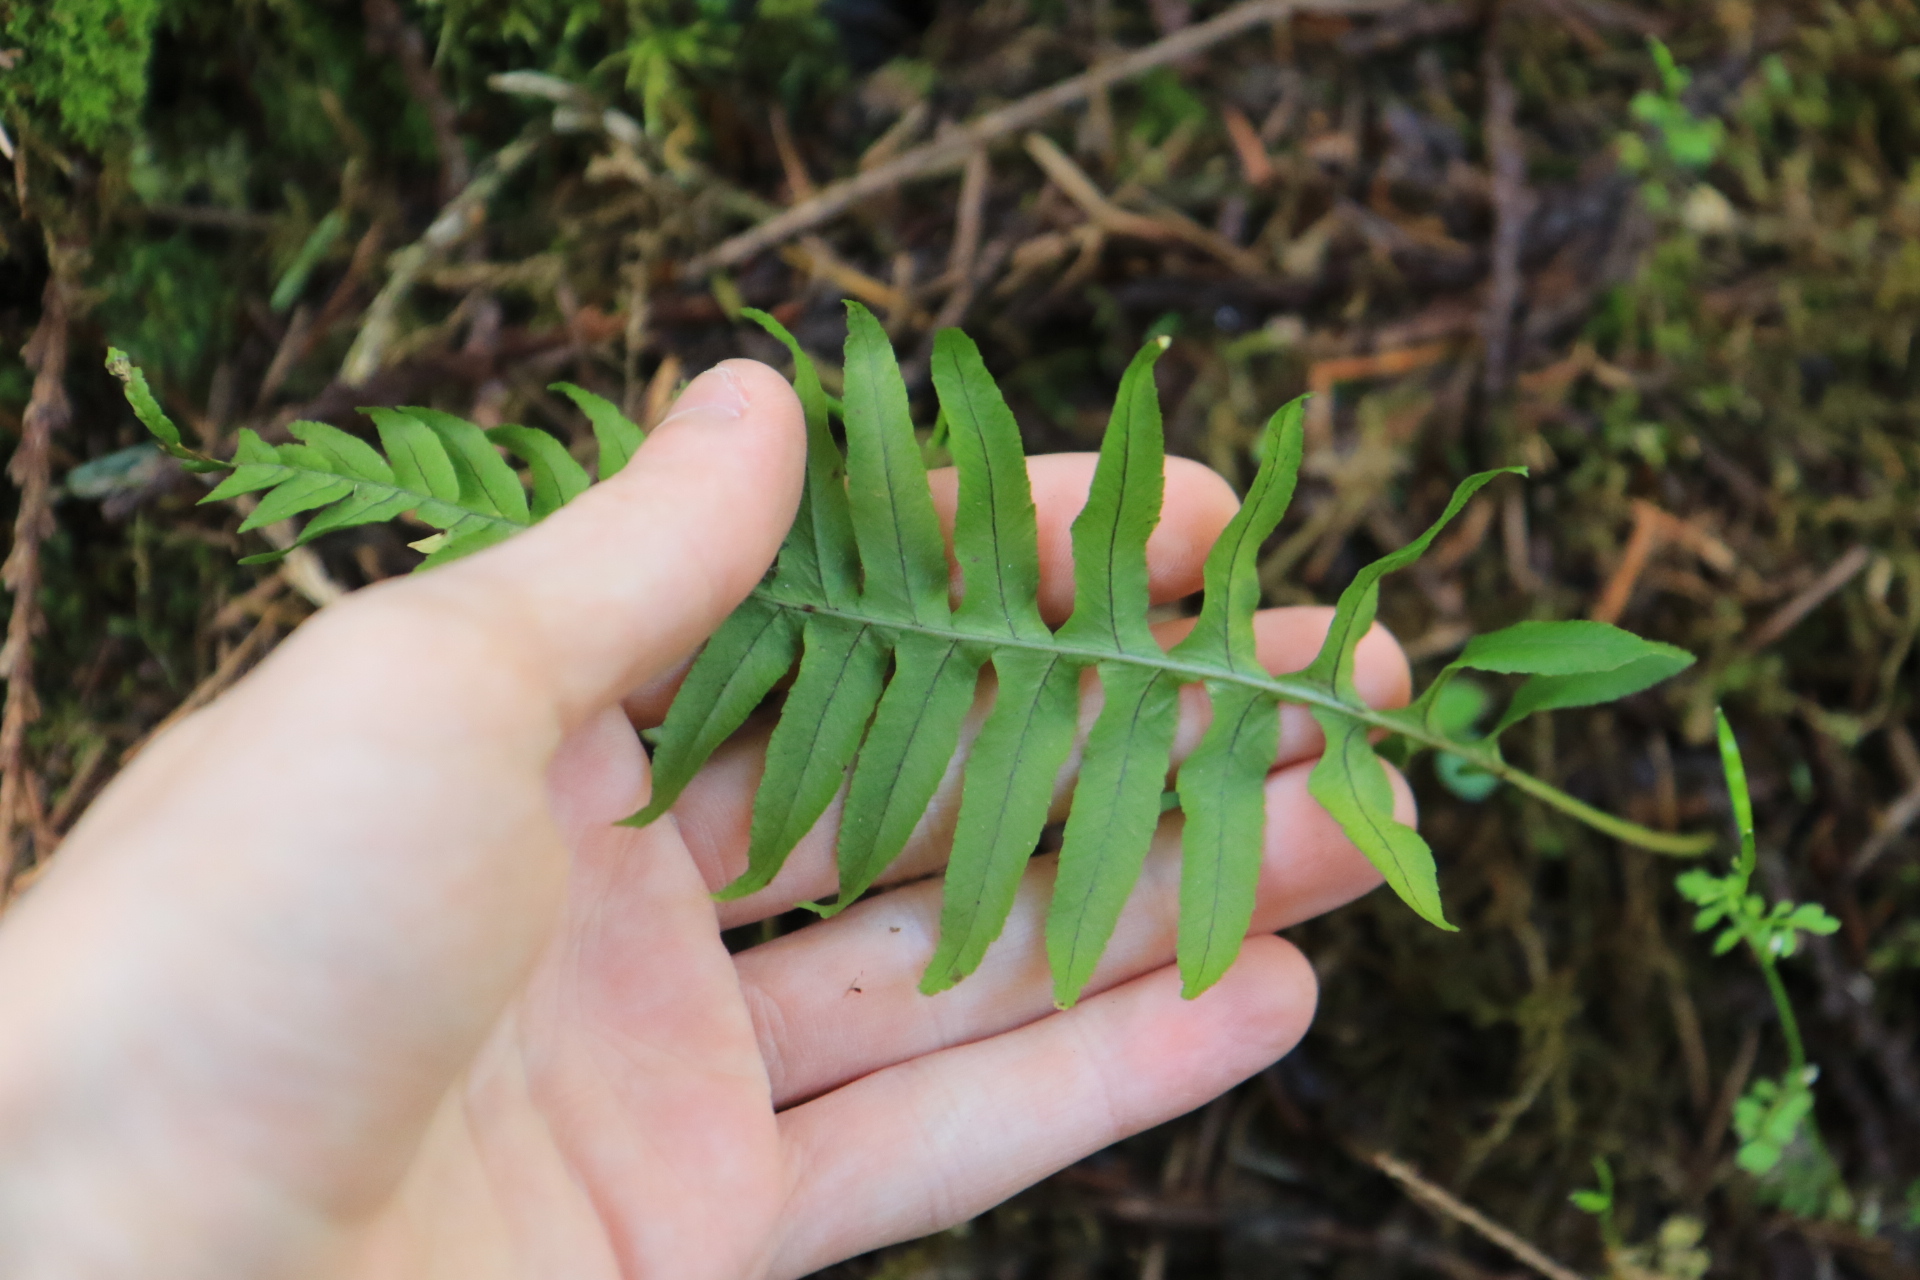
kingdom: Plantae
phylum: Tracheophyta
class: Polypodiopsida
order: Polypodiales
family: Polypodiaceae
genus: Polypodium
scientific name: Polypodium glycyrrhiza
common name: Licorice fern
